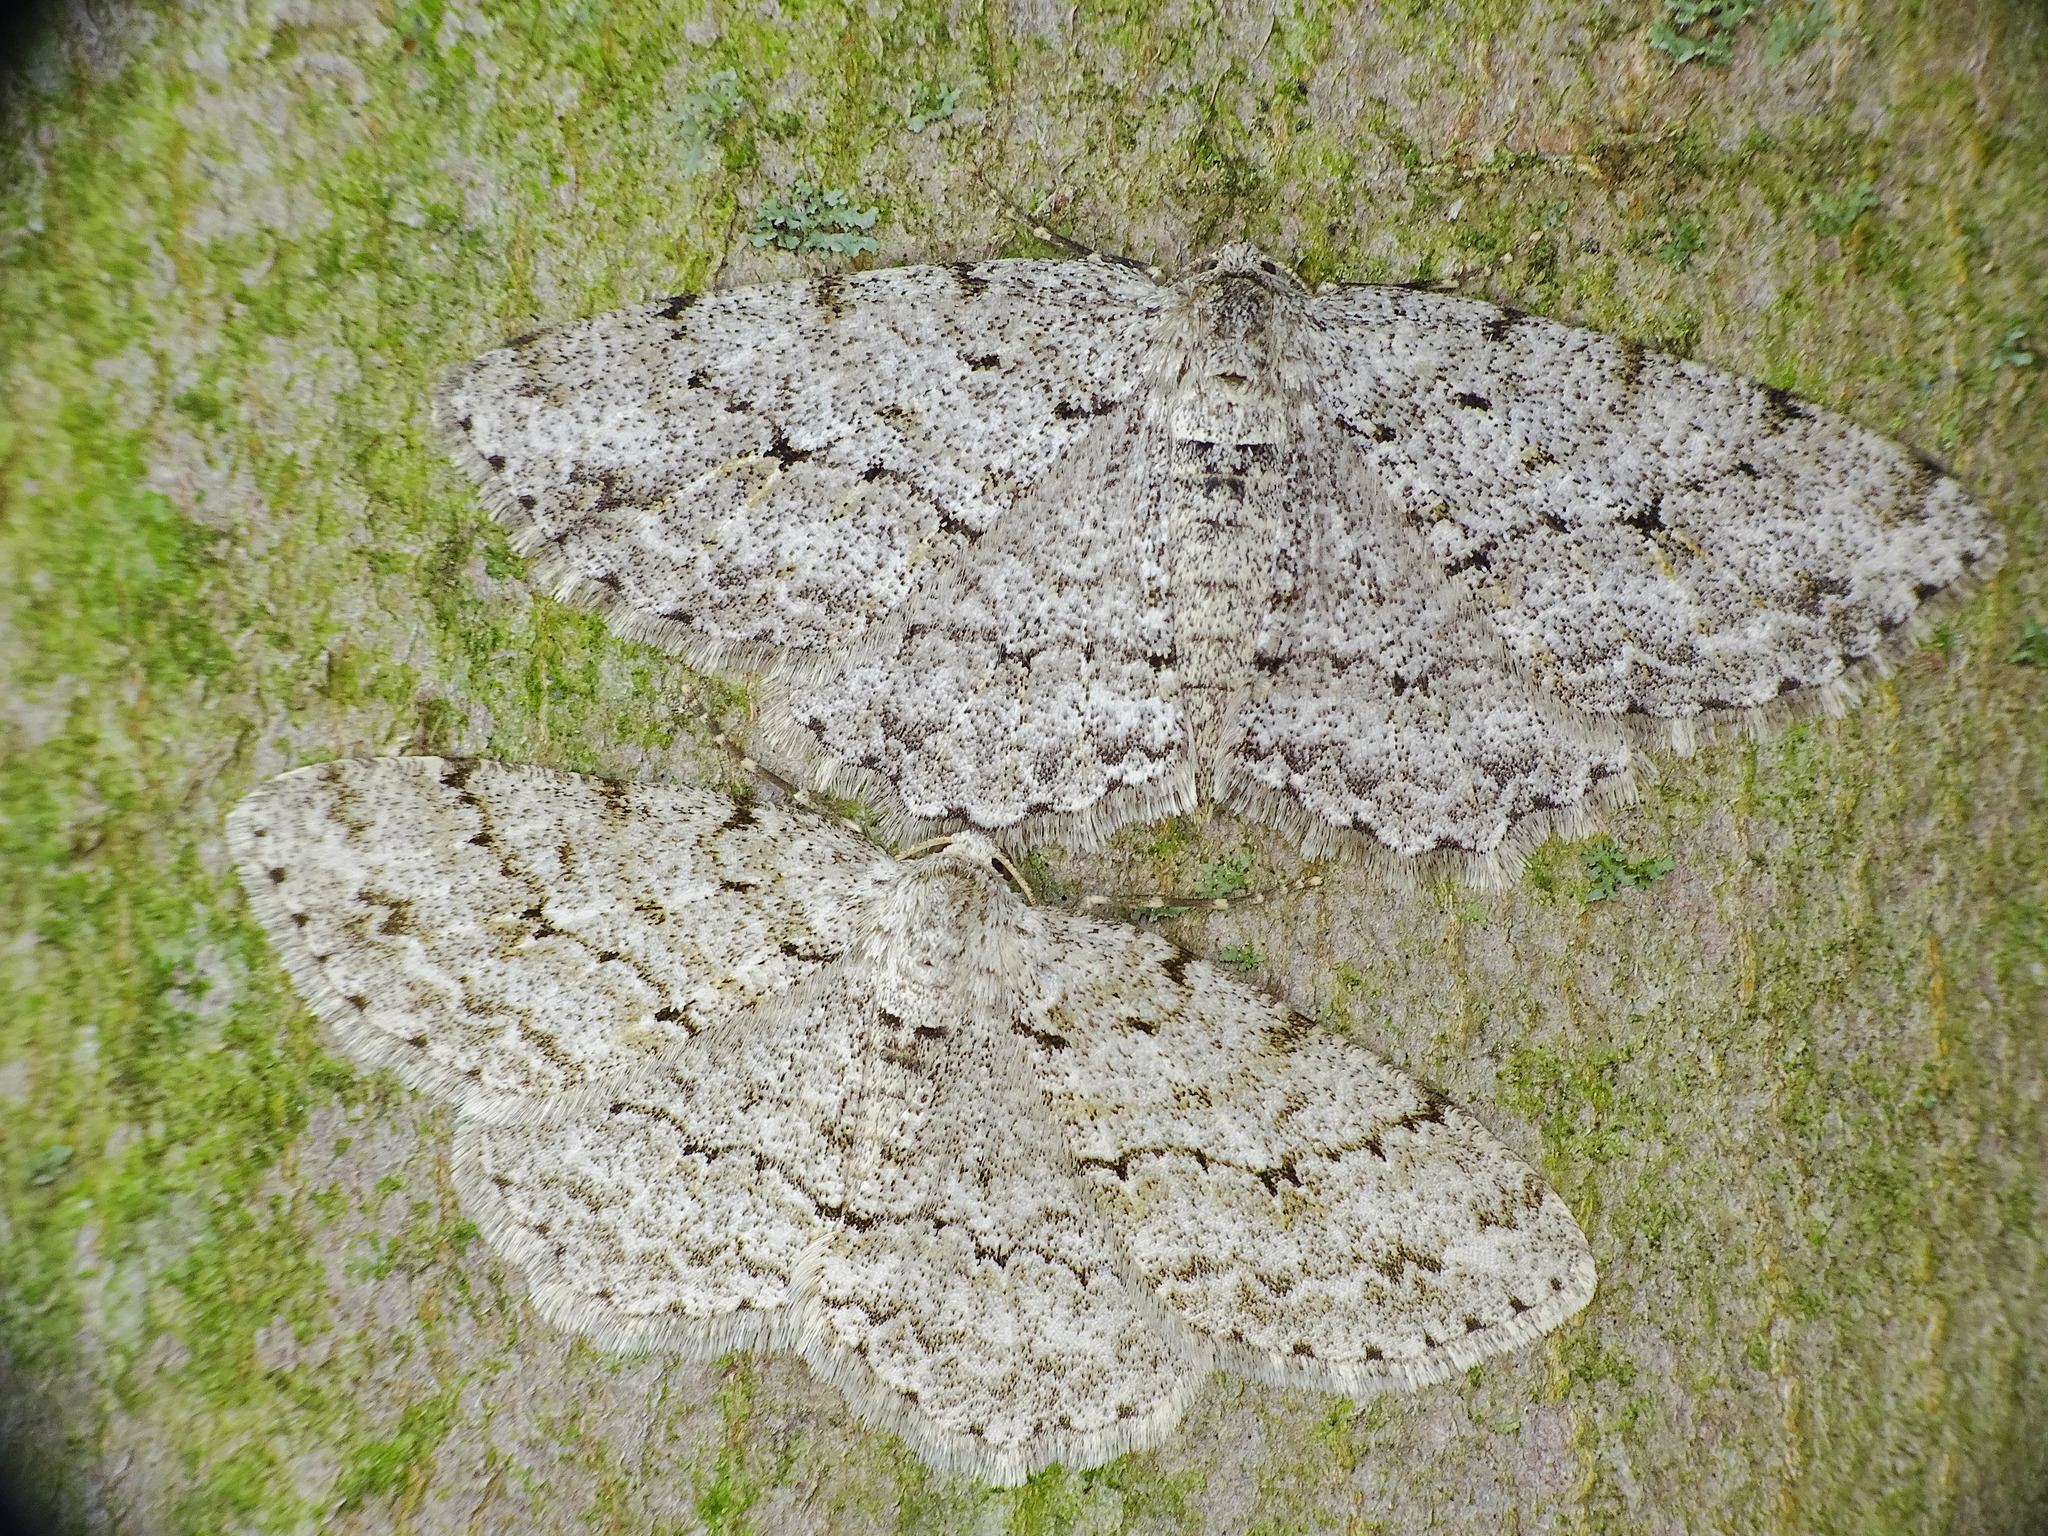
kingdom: Animalia
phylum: Arthropoda
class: Insecta
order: Lepidoptera
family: Geometridae
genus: Protoboarmia
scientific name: Protoboarmia porcelaria
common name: Porcelain gray
